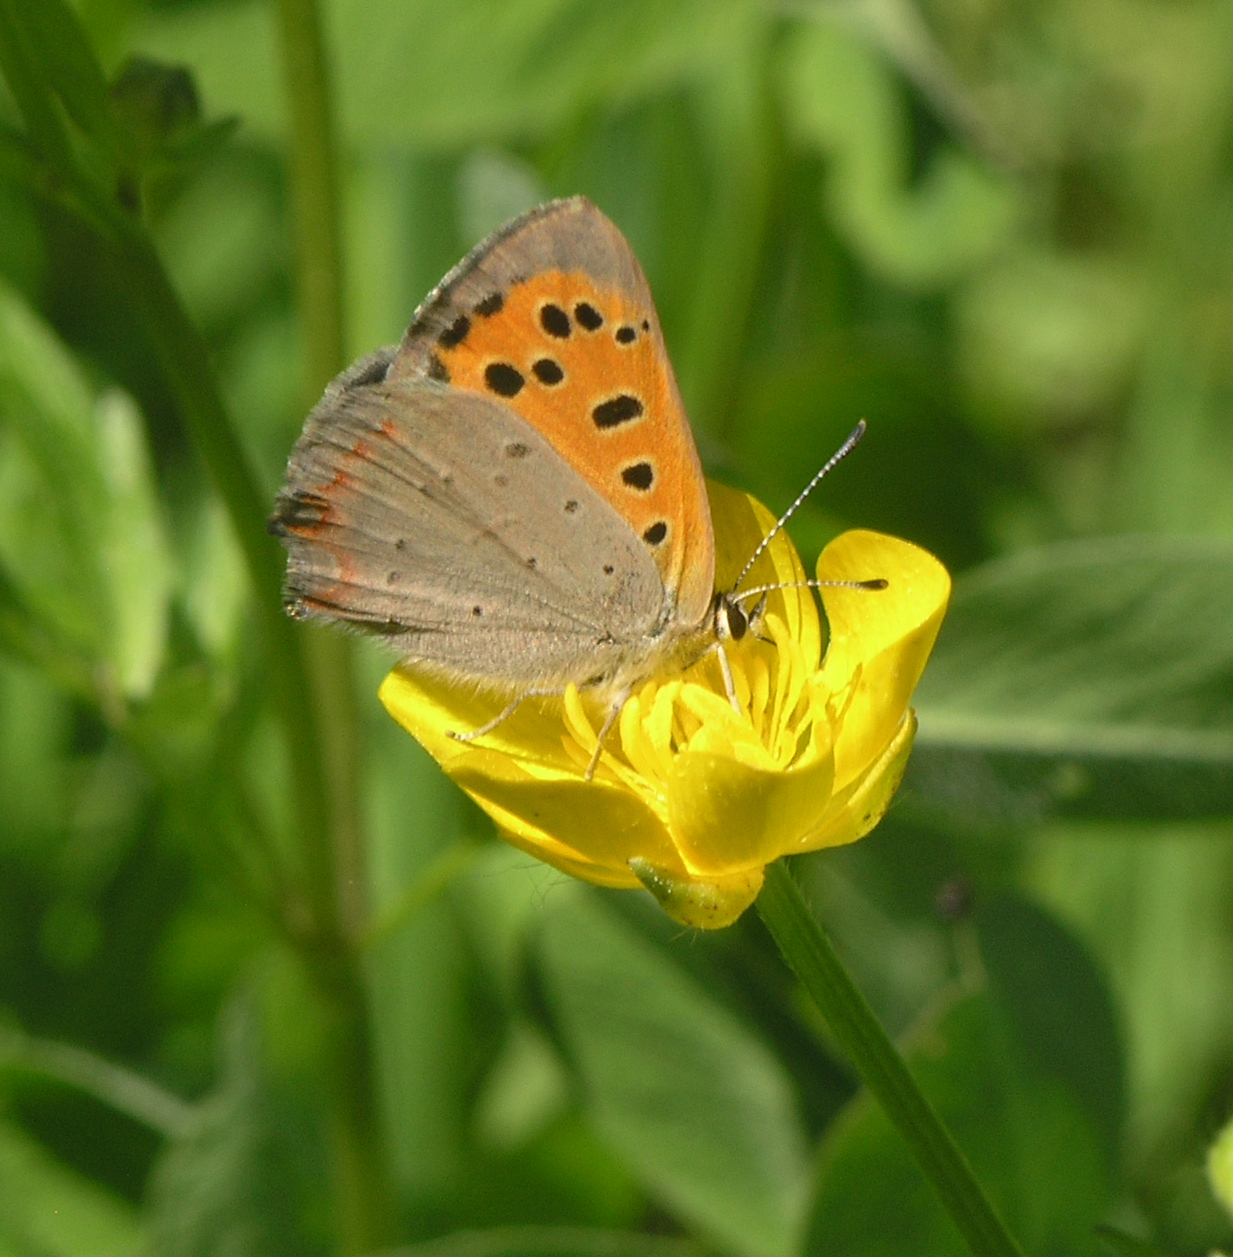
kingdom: Animalia
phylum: Arthropoda
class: Insecta
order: Lepidoptera
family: Lycaenidae
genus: Lycaena
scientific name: Lycaena phlaeas
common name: Small copper
